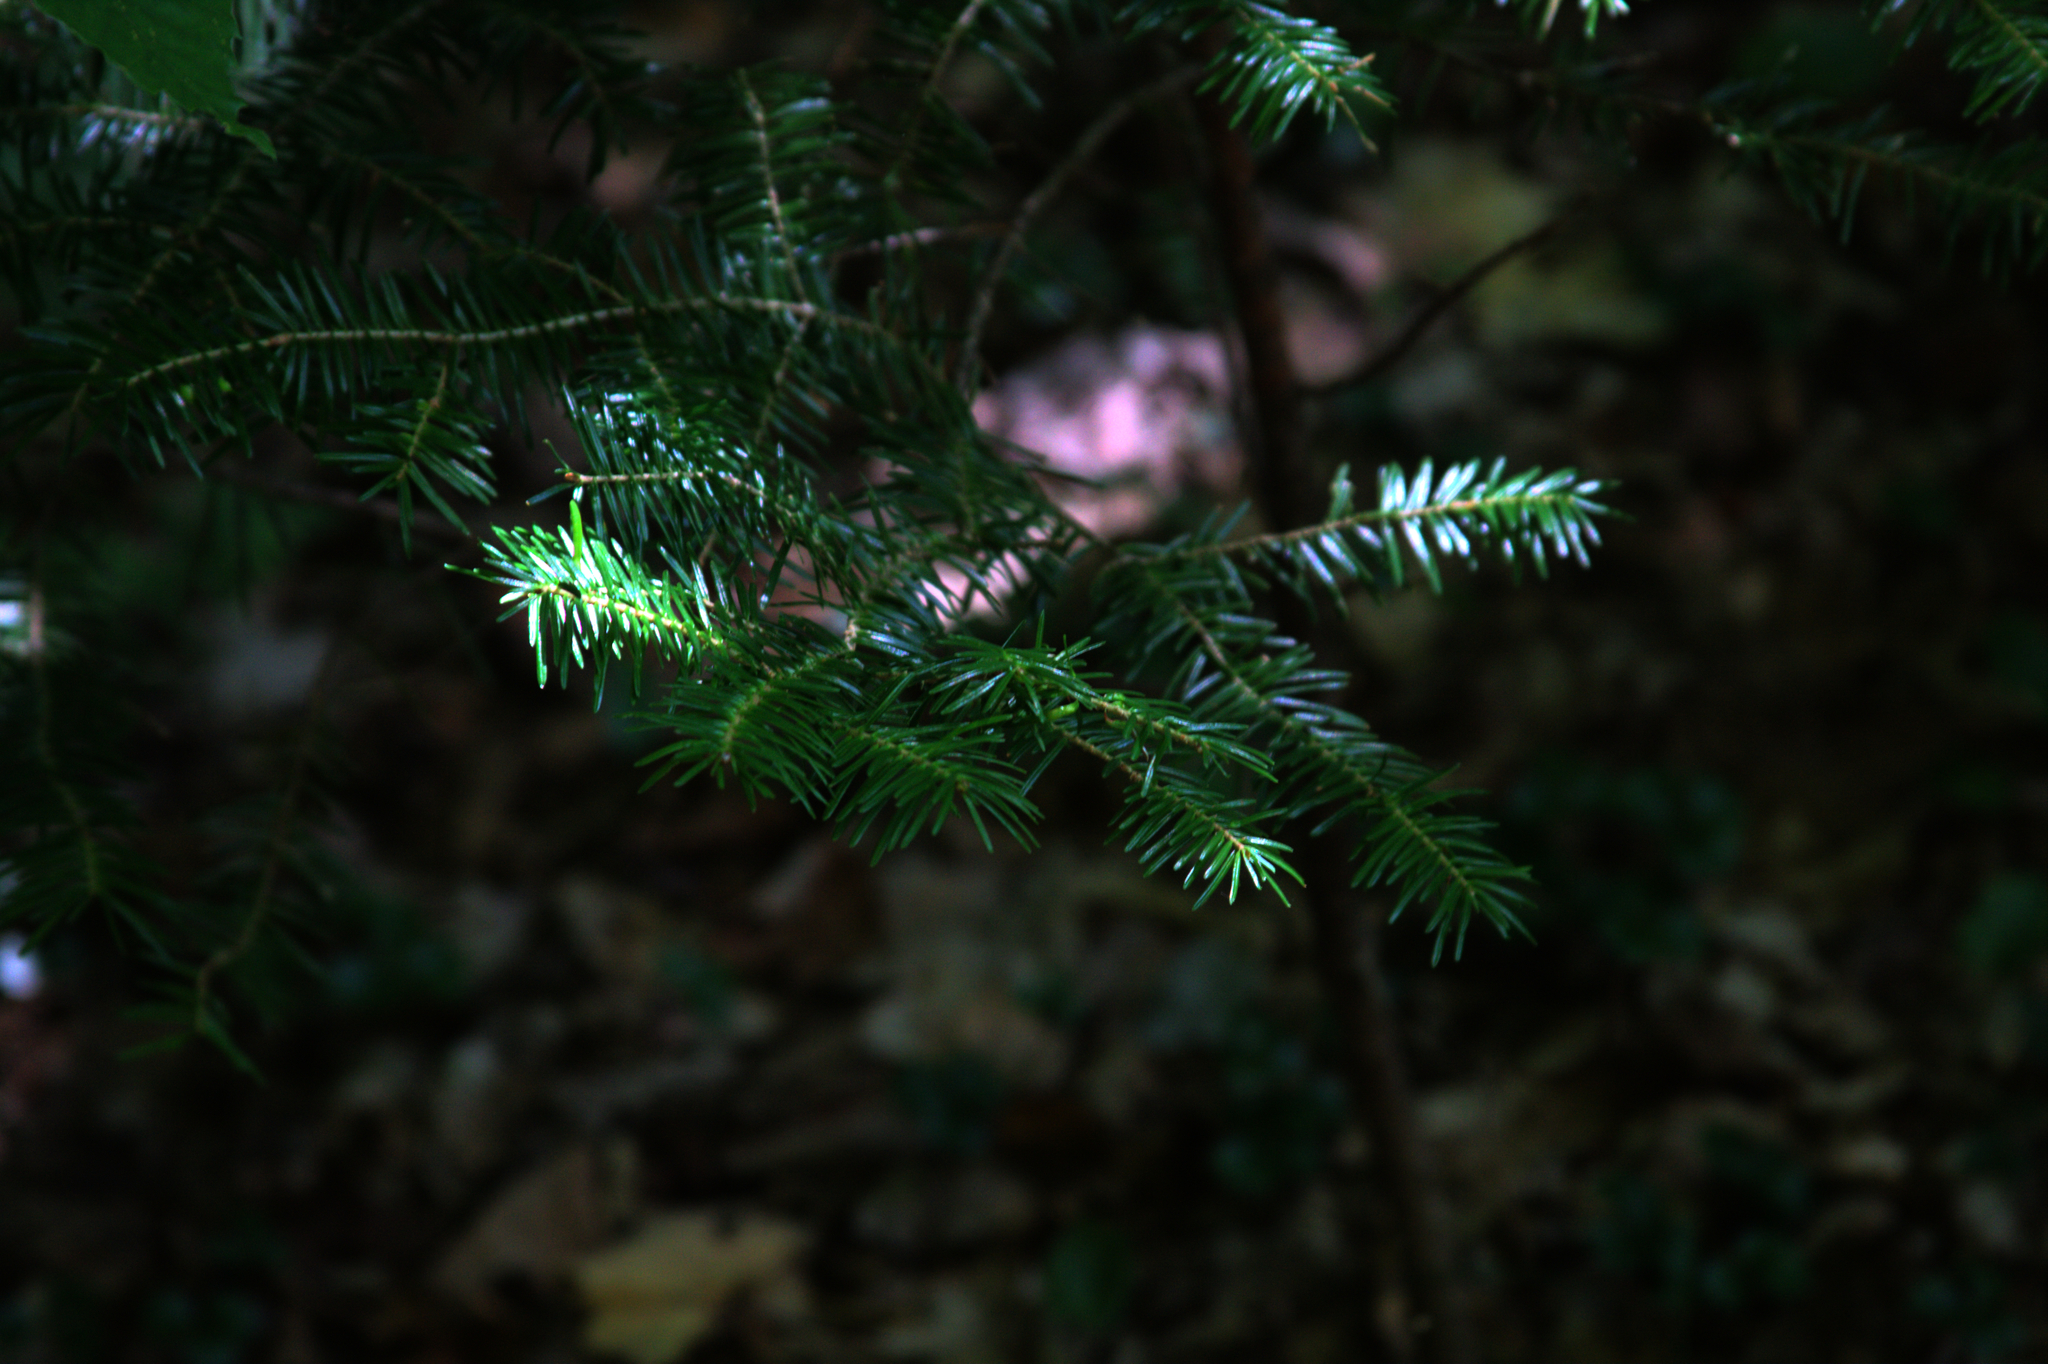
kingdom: Plantae
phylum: Tracheophyta
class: Pinopsida
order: Pinales
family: Pinaceae
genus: Abies
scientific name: Abies balsamea
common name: Balsam fir
